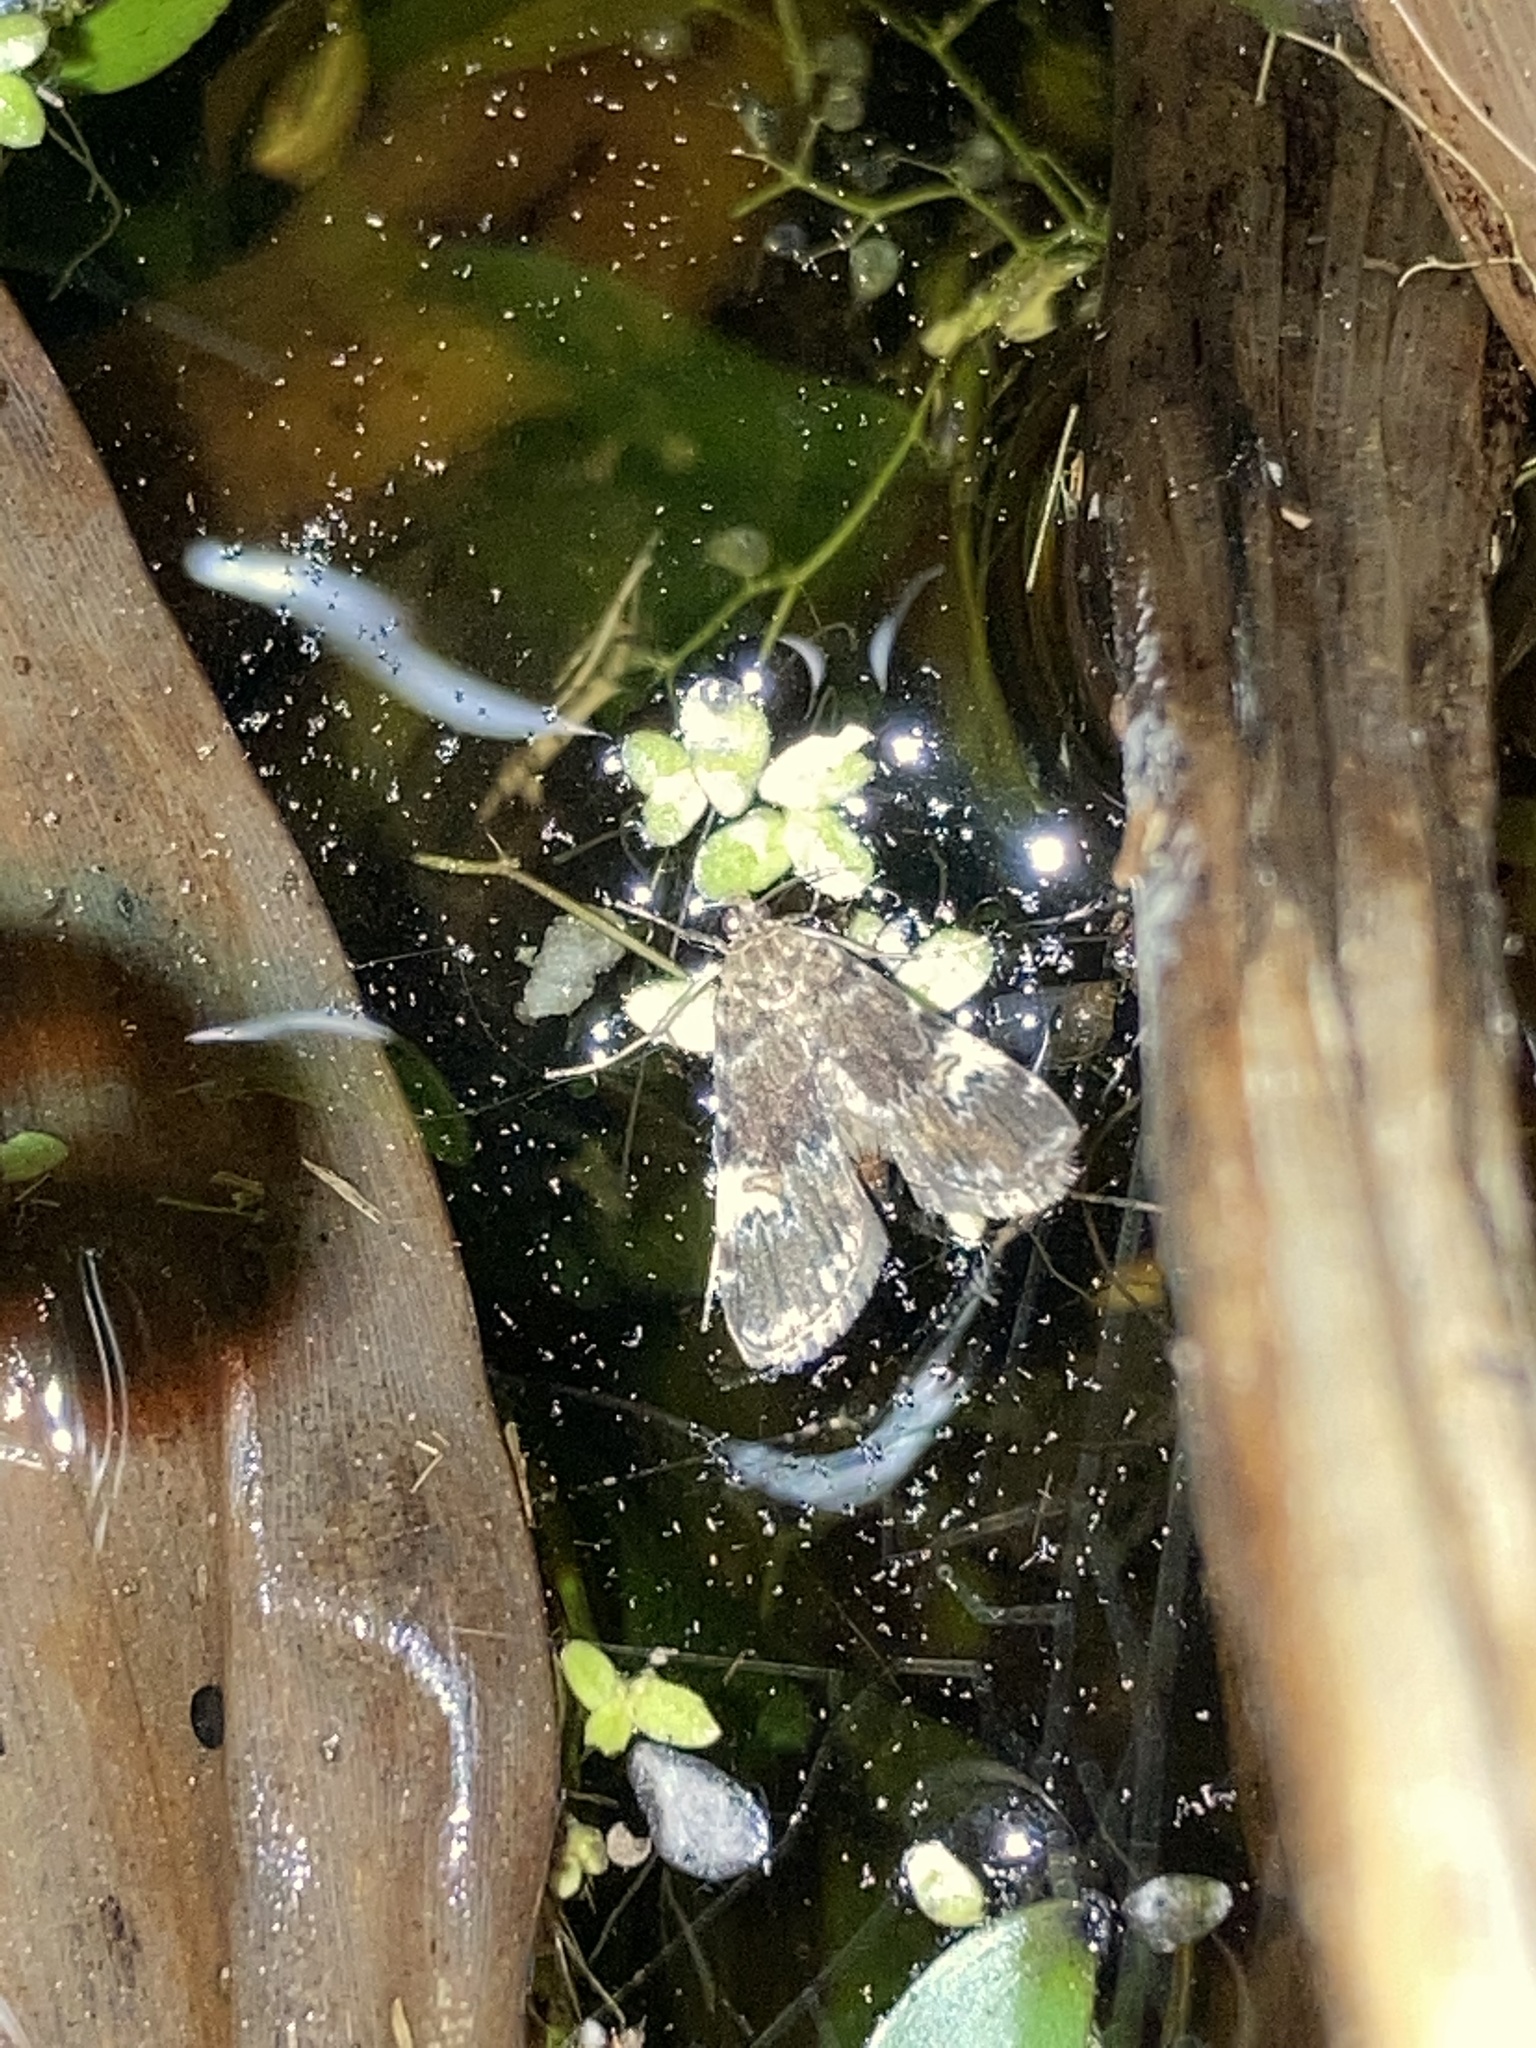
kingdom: Animalia
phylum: Arthropoda
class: Insecta
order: Lepidoptera
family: Crambidae
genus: Elophila
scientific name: Elophila obliteralis
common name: Waterlily leafcutter moth
